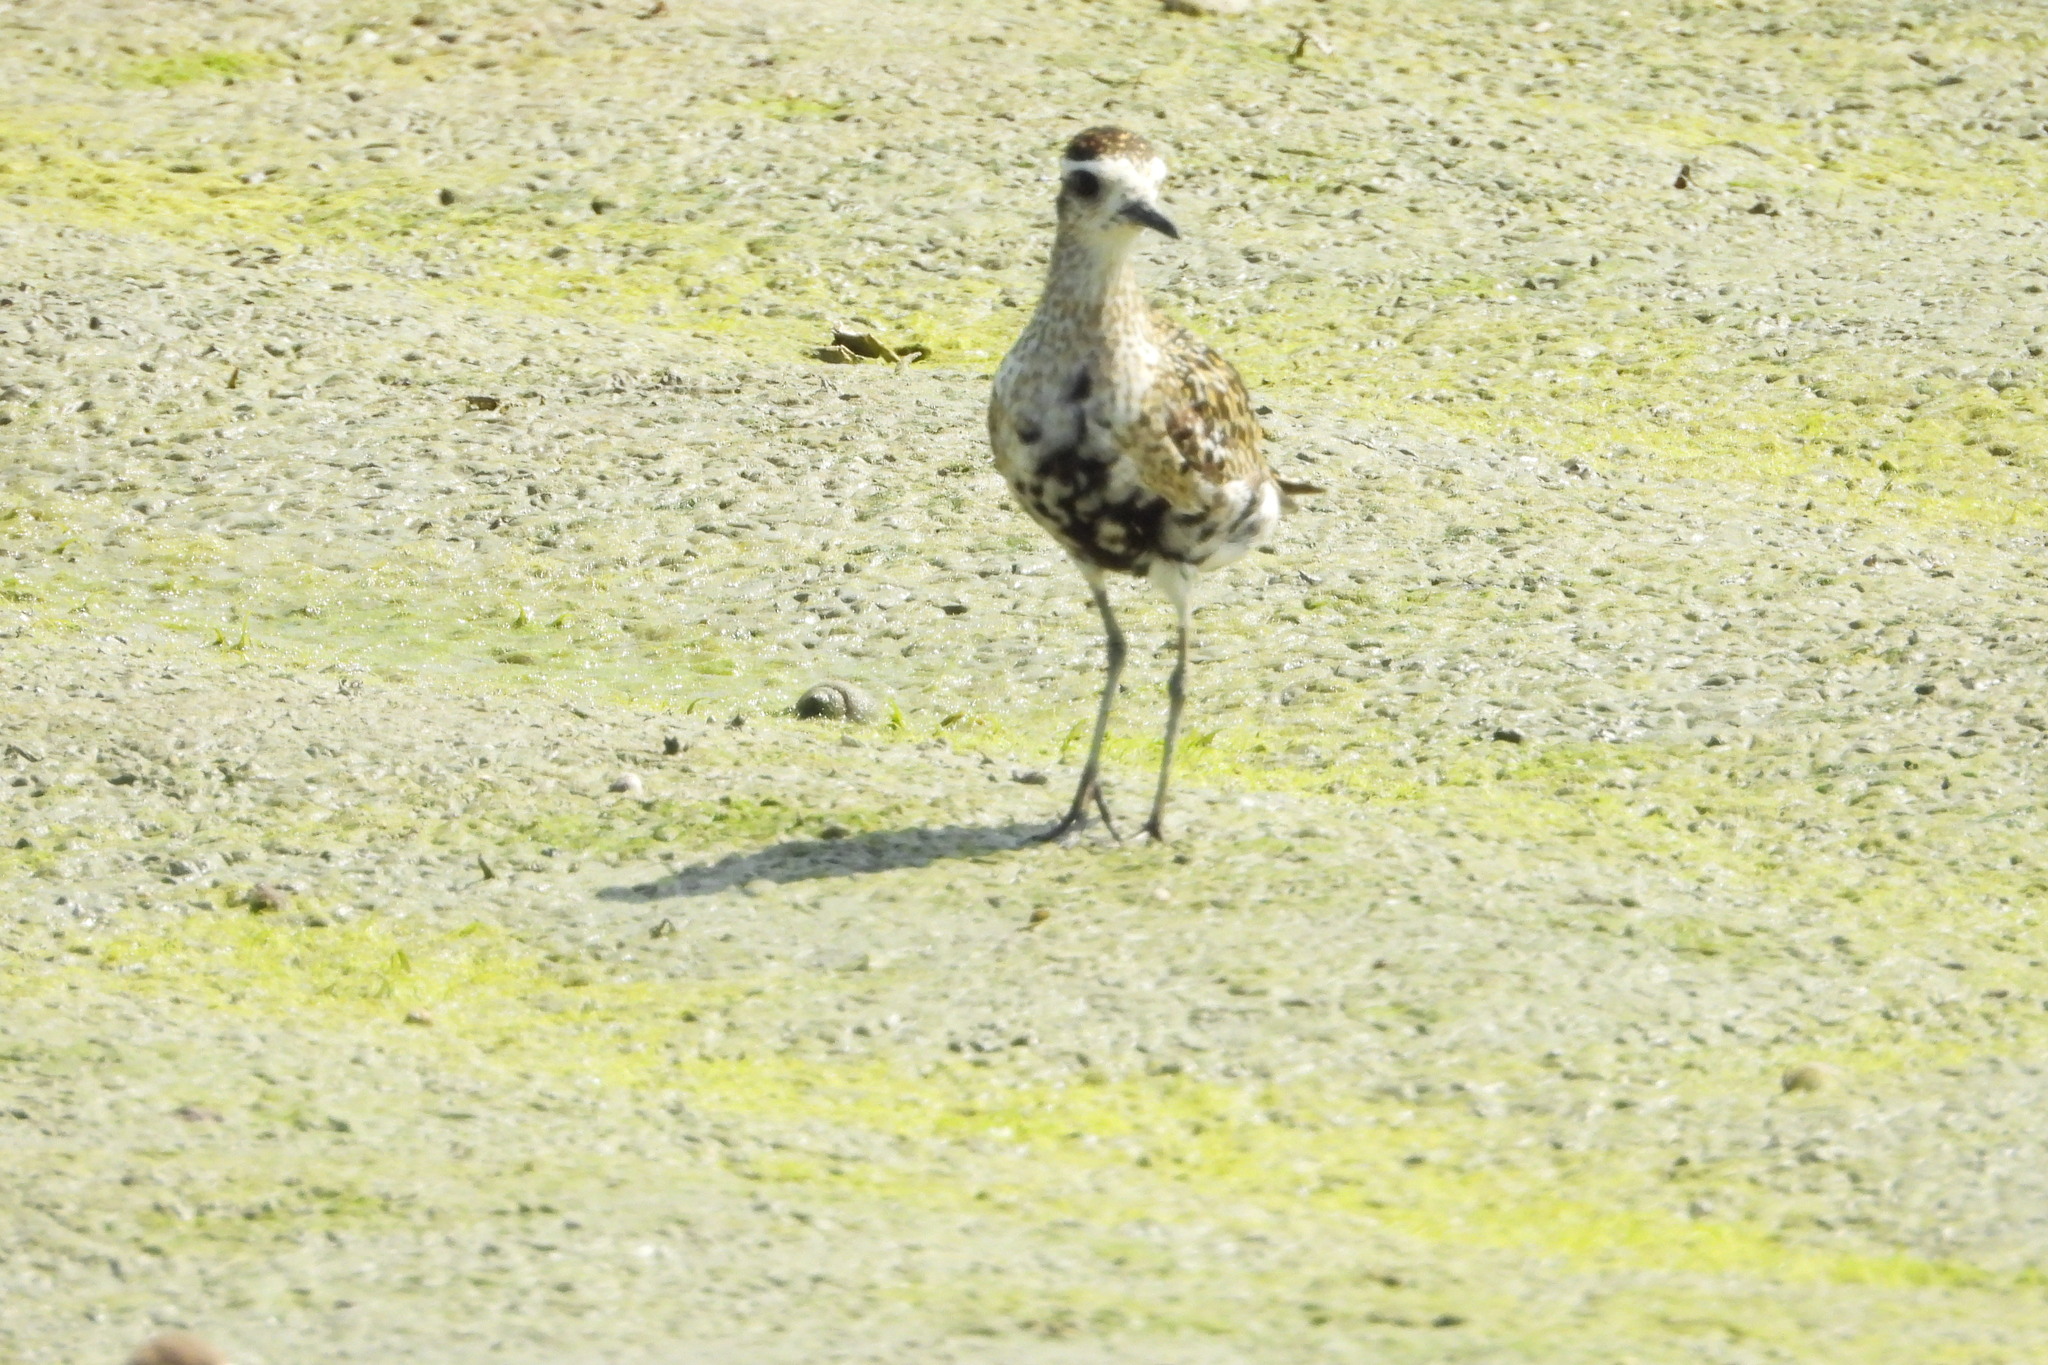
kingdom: Animalia
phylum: Chordata
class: Aves
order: Charadriiformes
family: Charadriidae
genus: Pluvialis
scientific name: Pluvialis fulva
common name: Pacific golden plover
